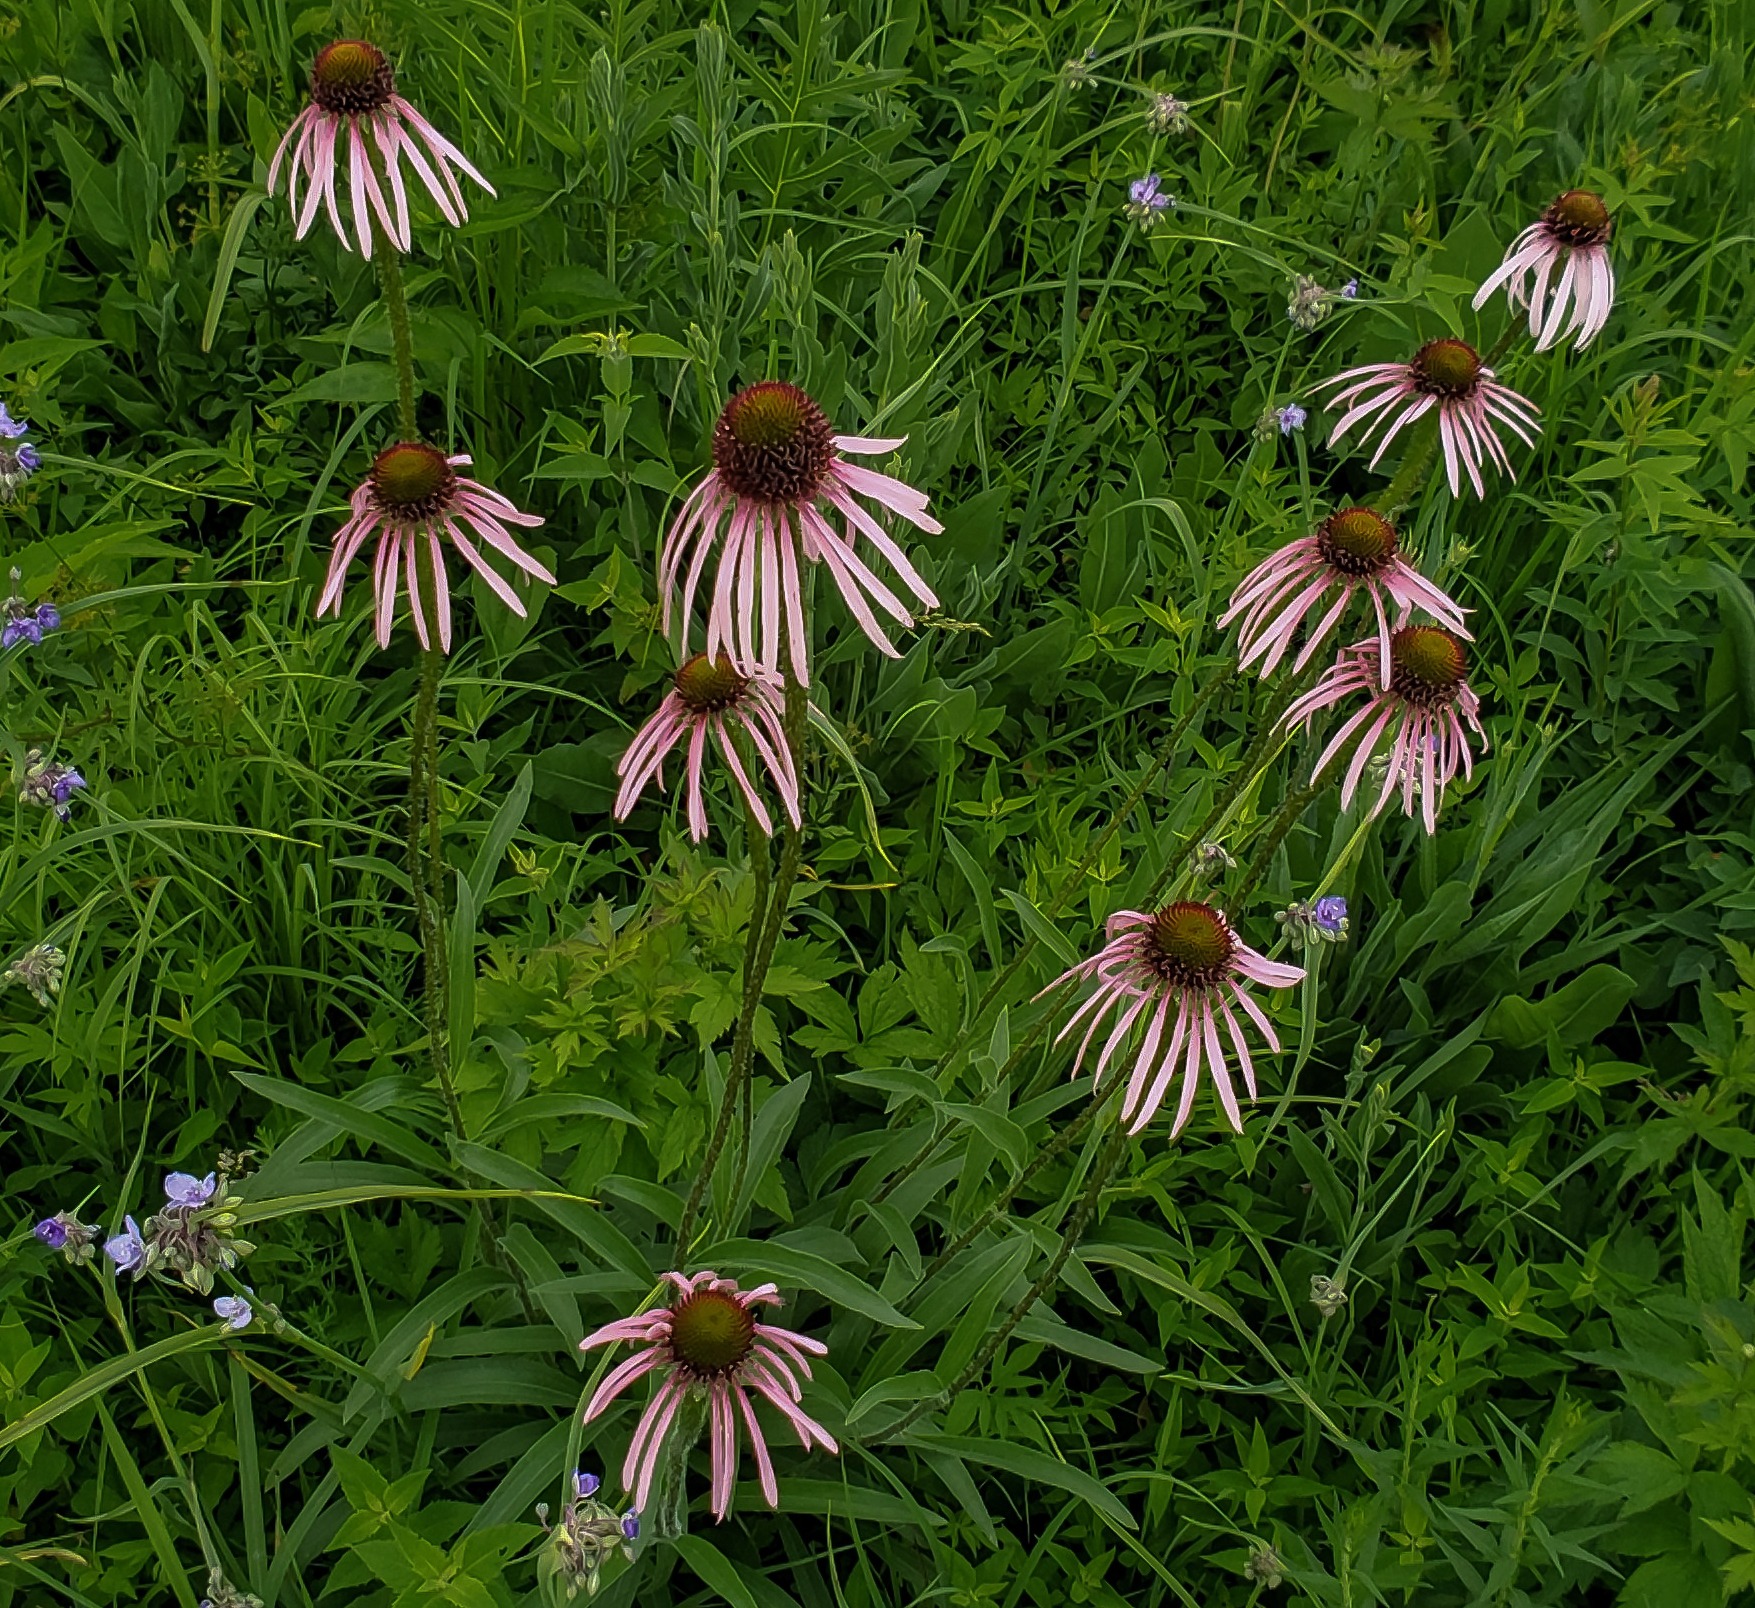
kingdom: Plantae
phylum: Tracheophyta
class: Magnoliopsida
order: Asterales
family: Asteraceae
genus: Echinacea
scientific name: Echinacea pallida
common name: Pale echinacea
